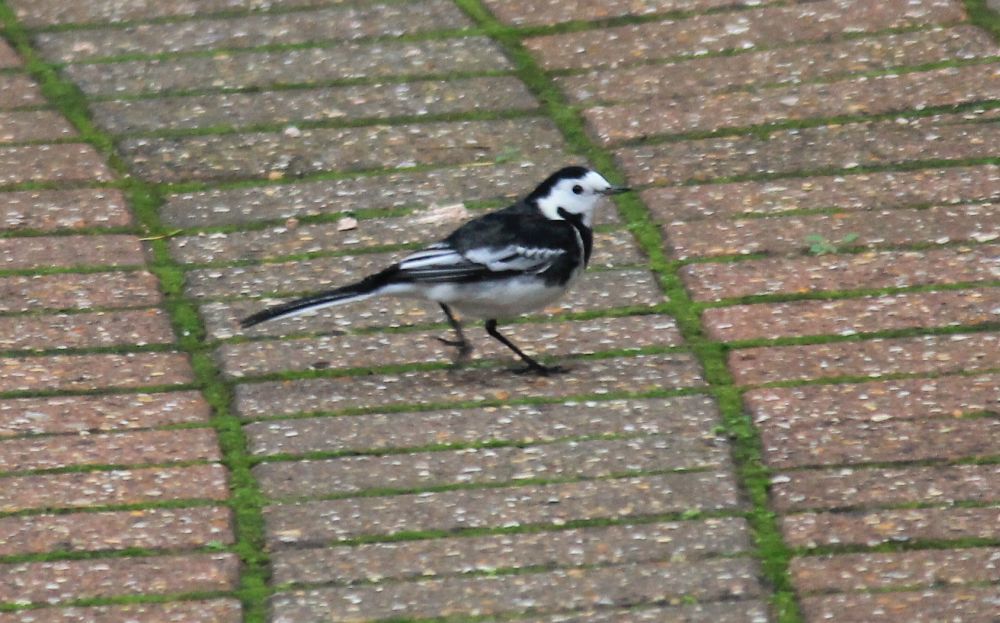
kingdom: Animalia
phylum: Chordata
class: Aves
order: Passeriformes
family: Motacillidae
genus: Motacilla
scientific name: Motacilla alba
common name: White wagtail
